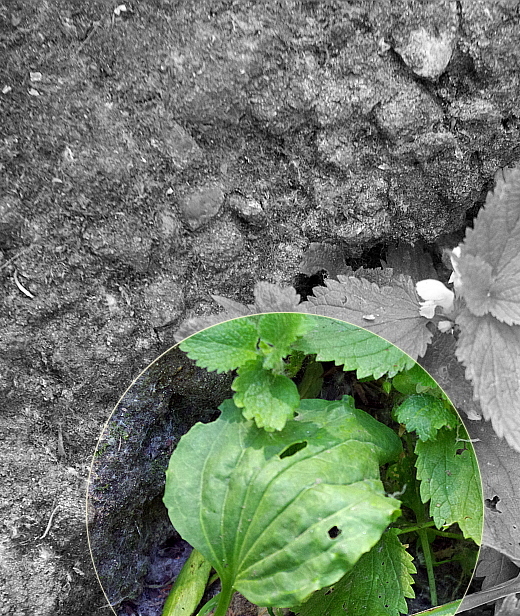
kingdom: Plantae
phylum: Tracheophyta
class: Magnoliopsida
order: Lamiales
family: Plantaginaceae
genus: Plantago
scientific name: Plantago major
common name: Common plantain
